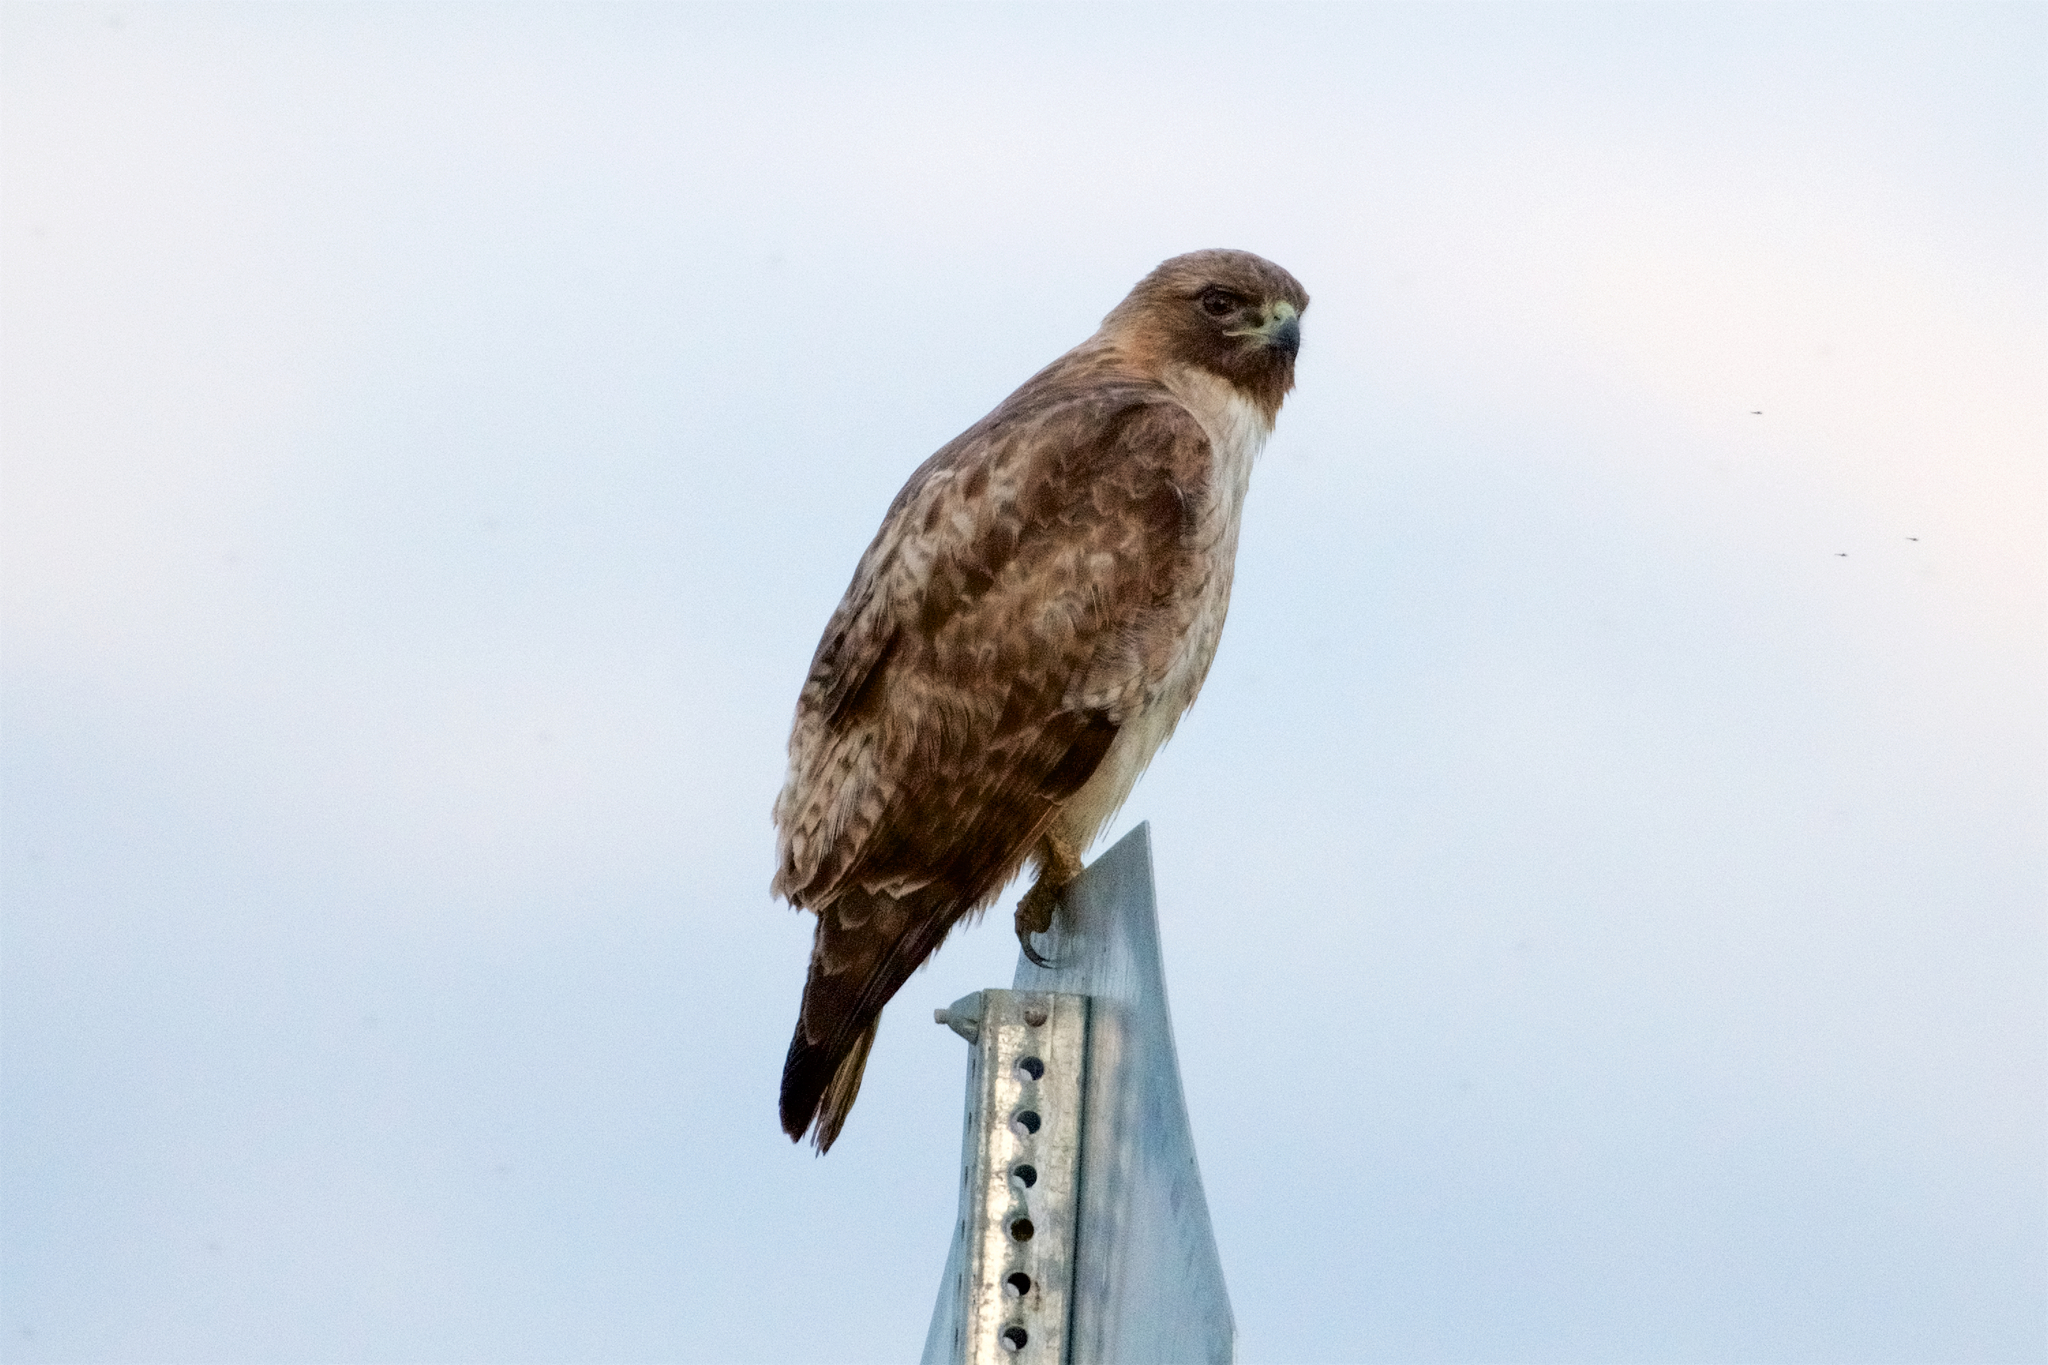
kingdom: Animalia
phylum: Chordata
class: Aves
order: Accipitriformes
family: Accipitridae
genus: Buteo
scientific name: Buteo jamaicensis
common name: Red-tailed hawk
